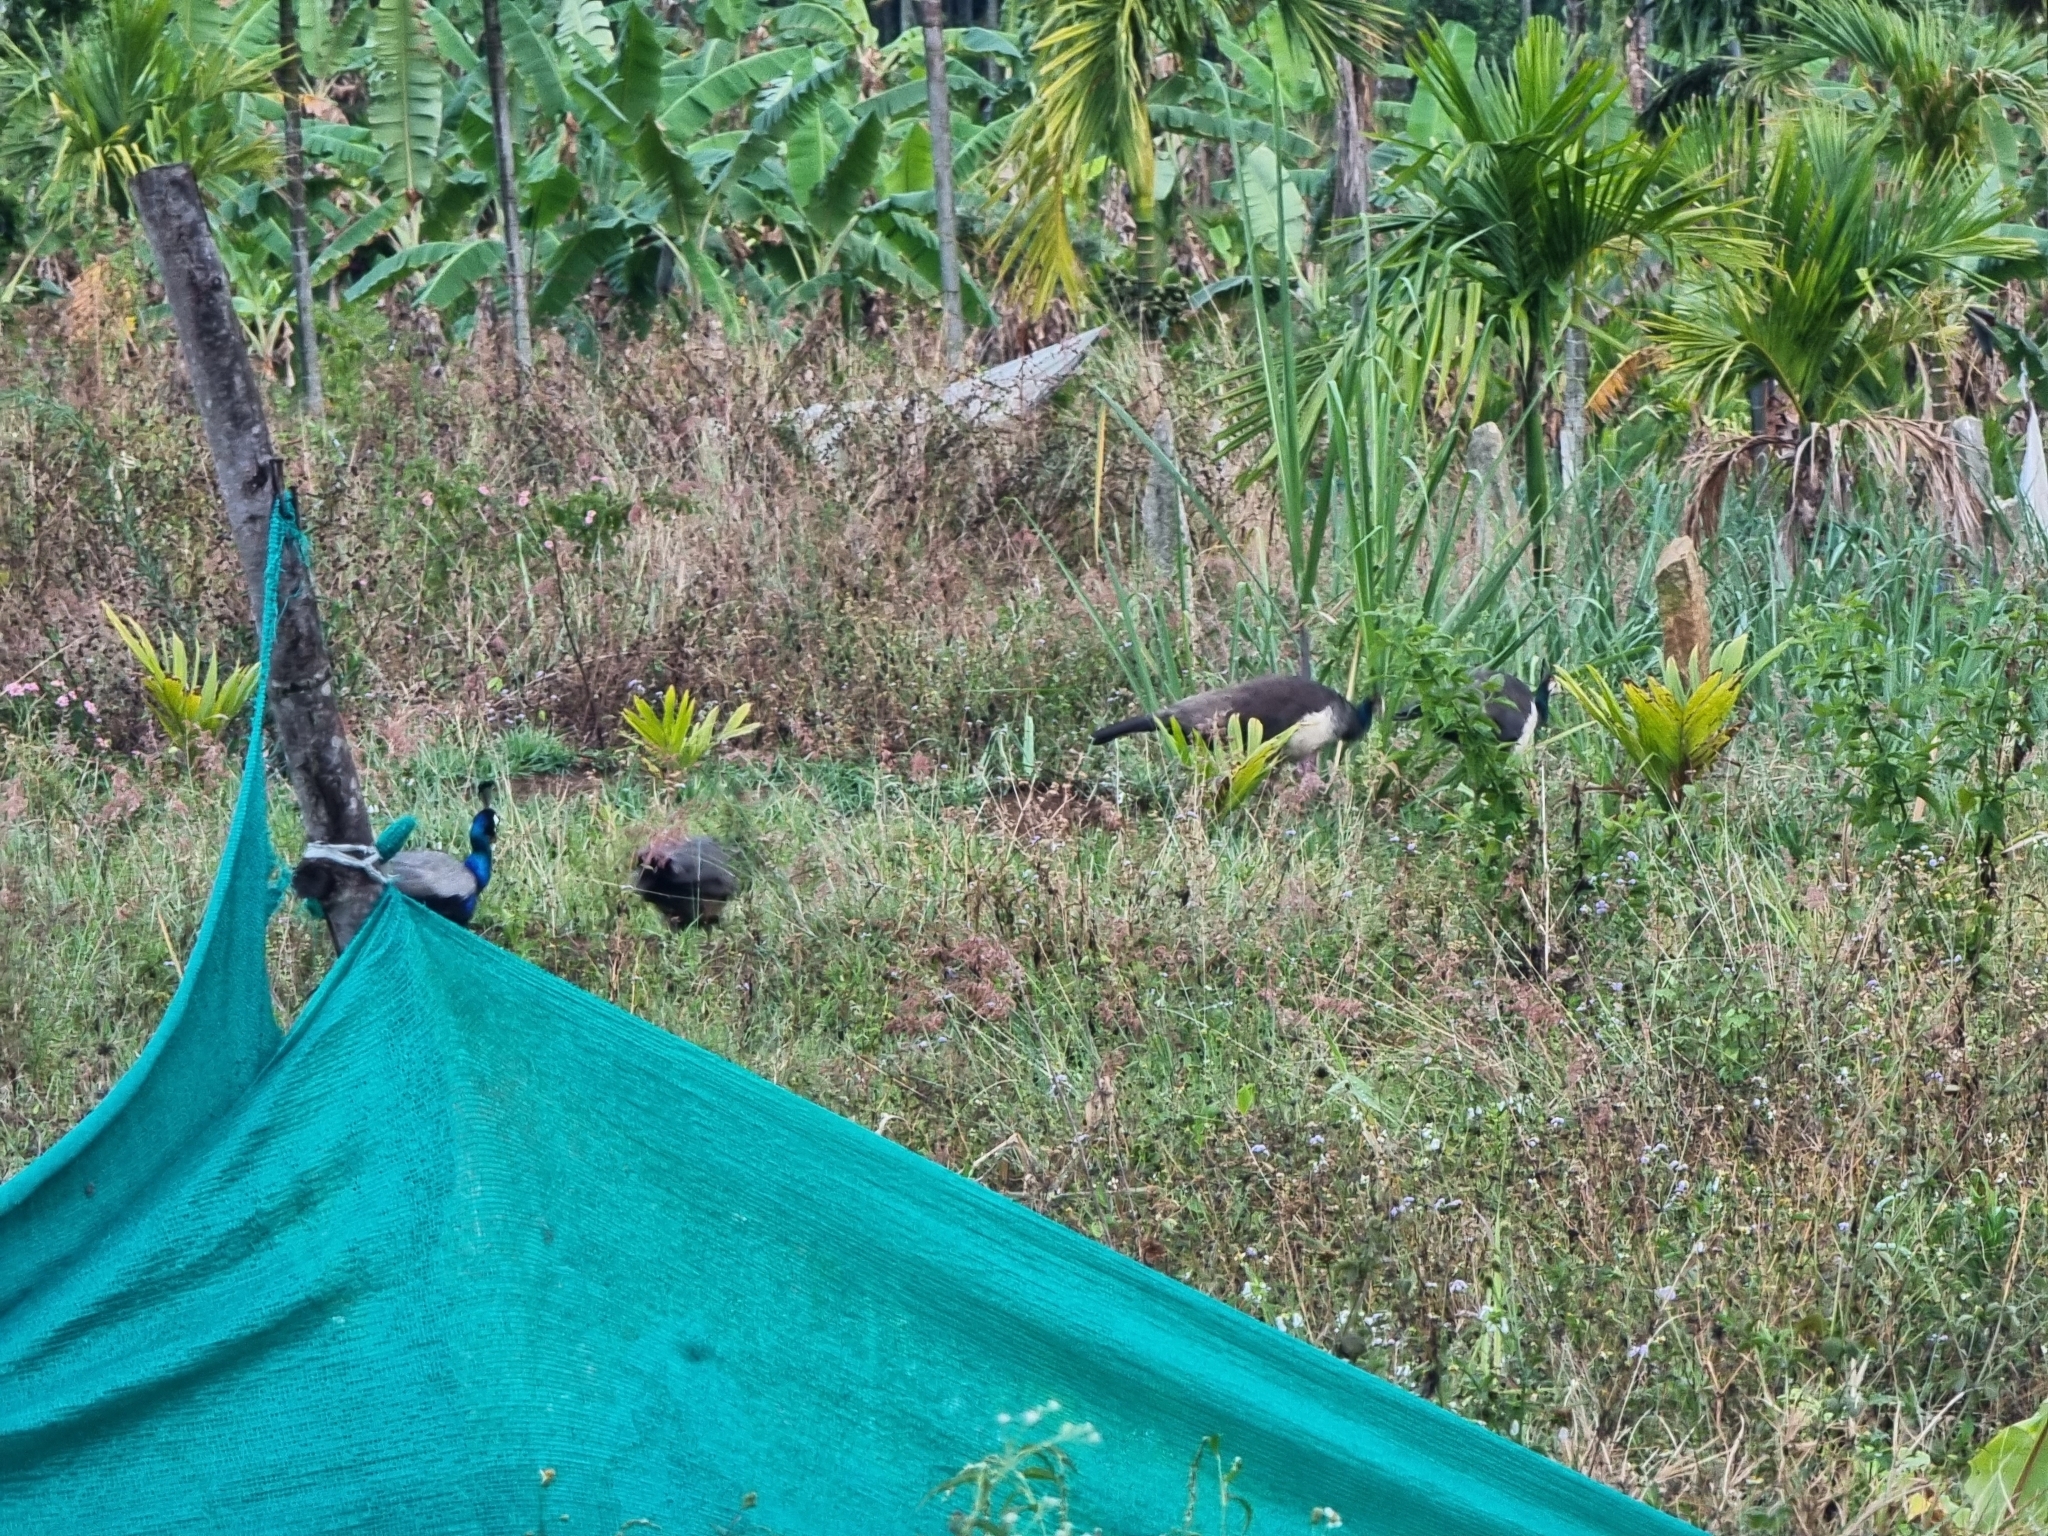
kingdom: Animalia
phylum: Chordata
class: Aves
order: Galliformes
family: Phasianidae
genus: Pavo
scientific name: Pavo cristatus
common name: Indian peafowl
